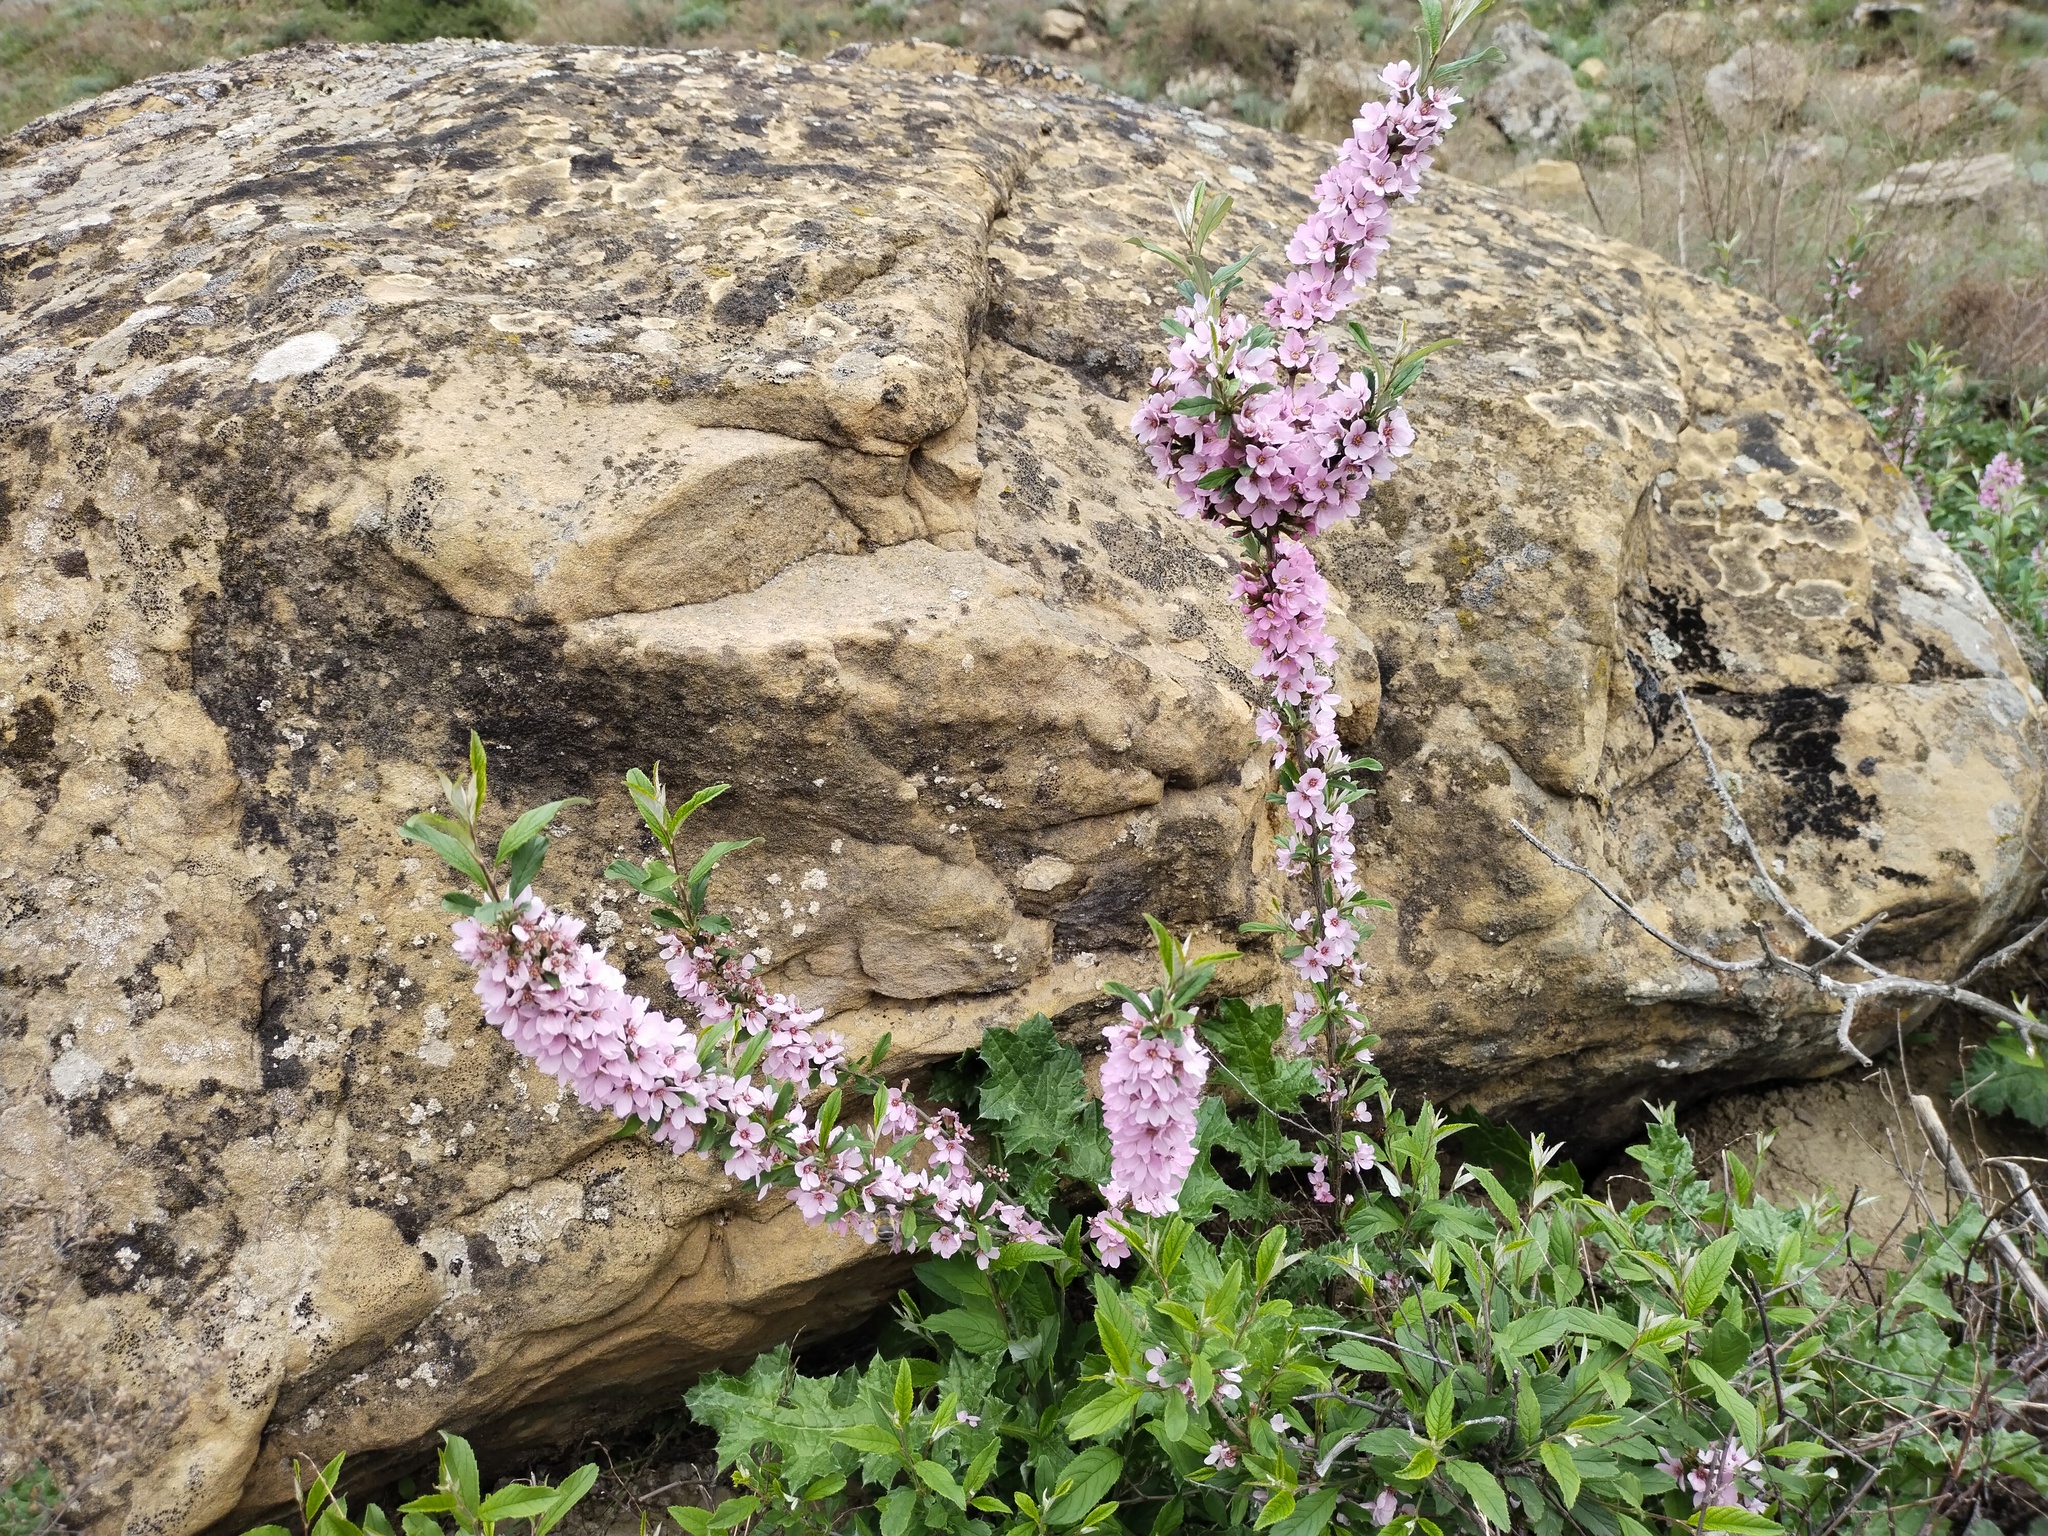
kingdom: Plantae
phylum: Tracheophyta
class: Magnoliopsida
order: Rosales
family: Rosaceae
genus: Prunus
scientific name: Prunus tenella
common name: Dwarf russian almond
